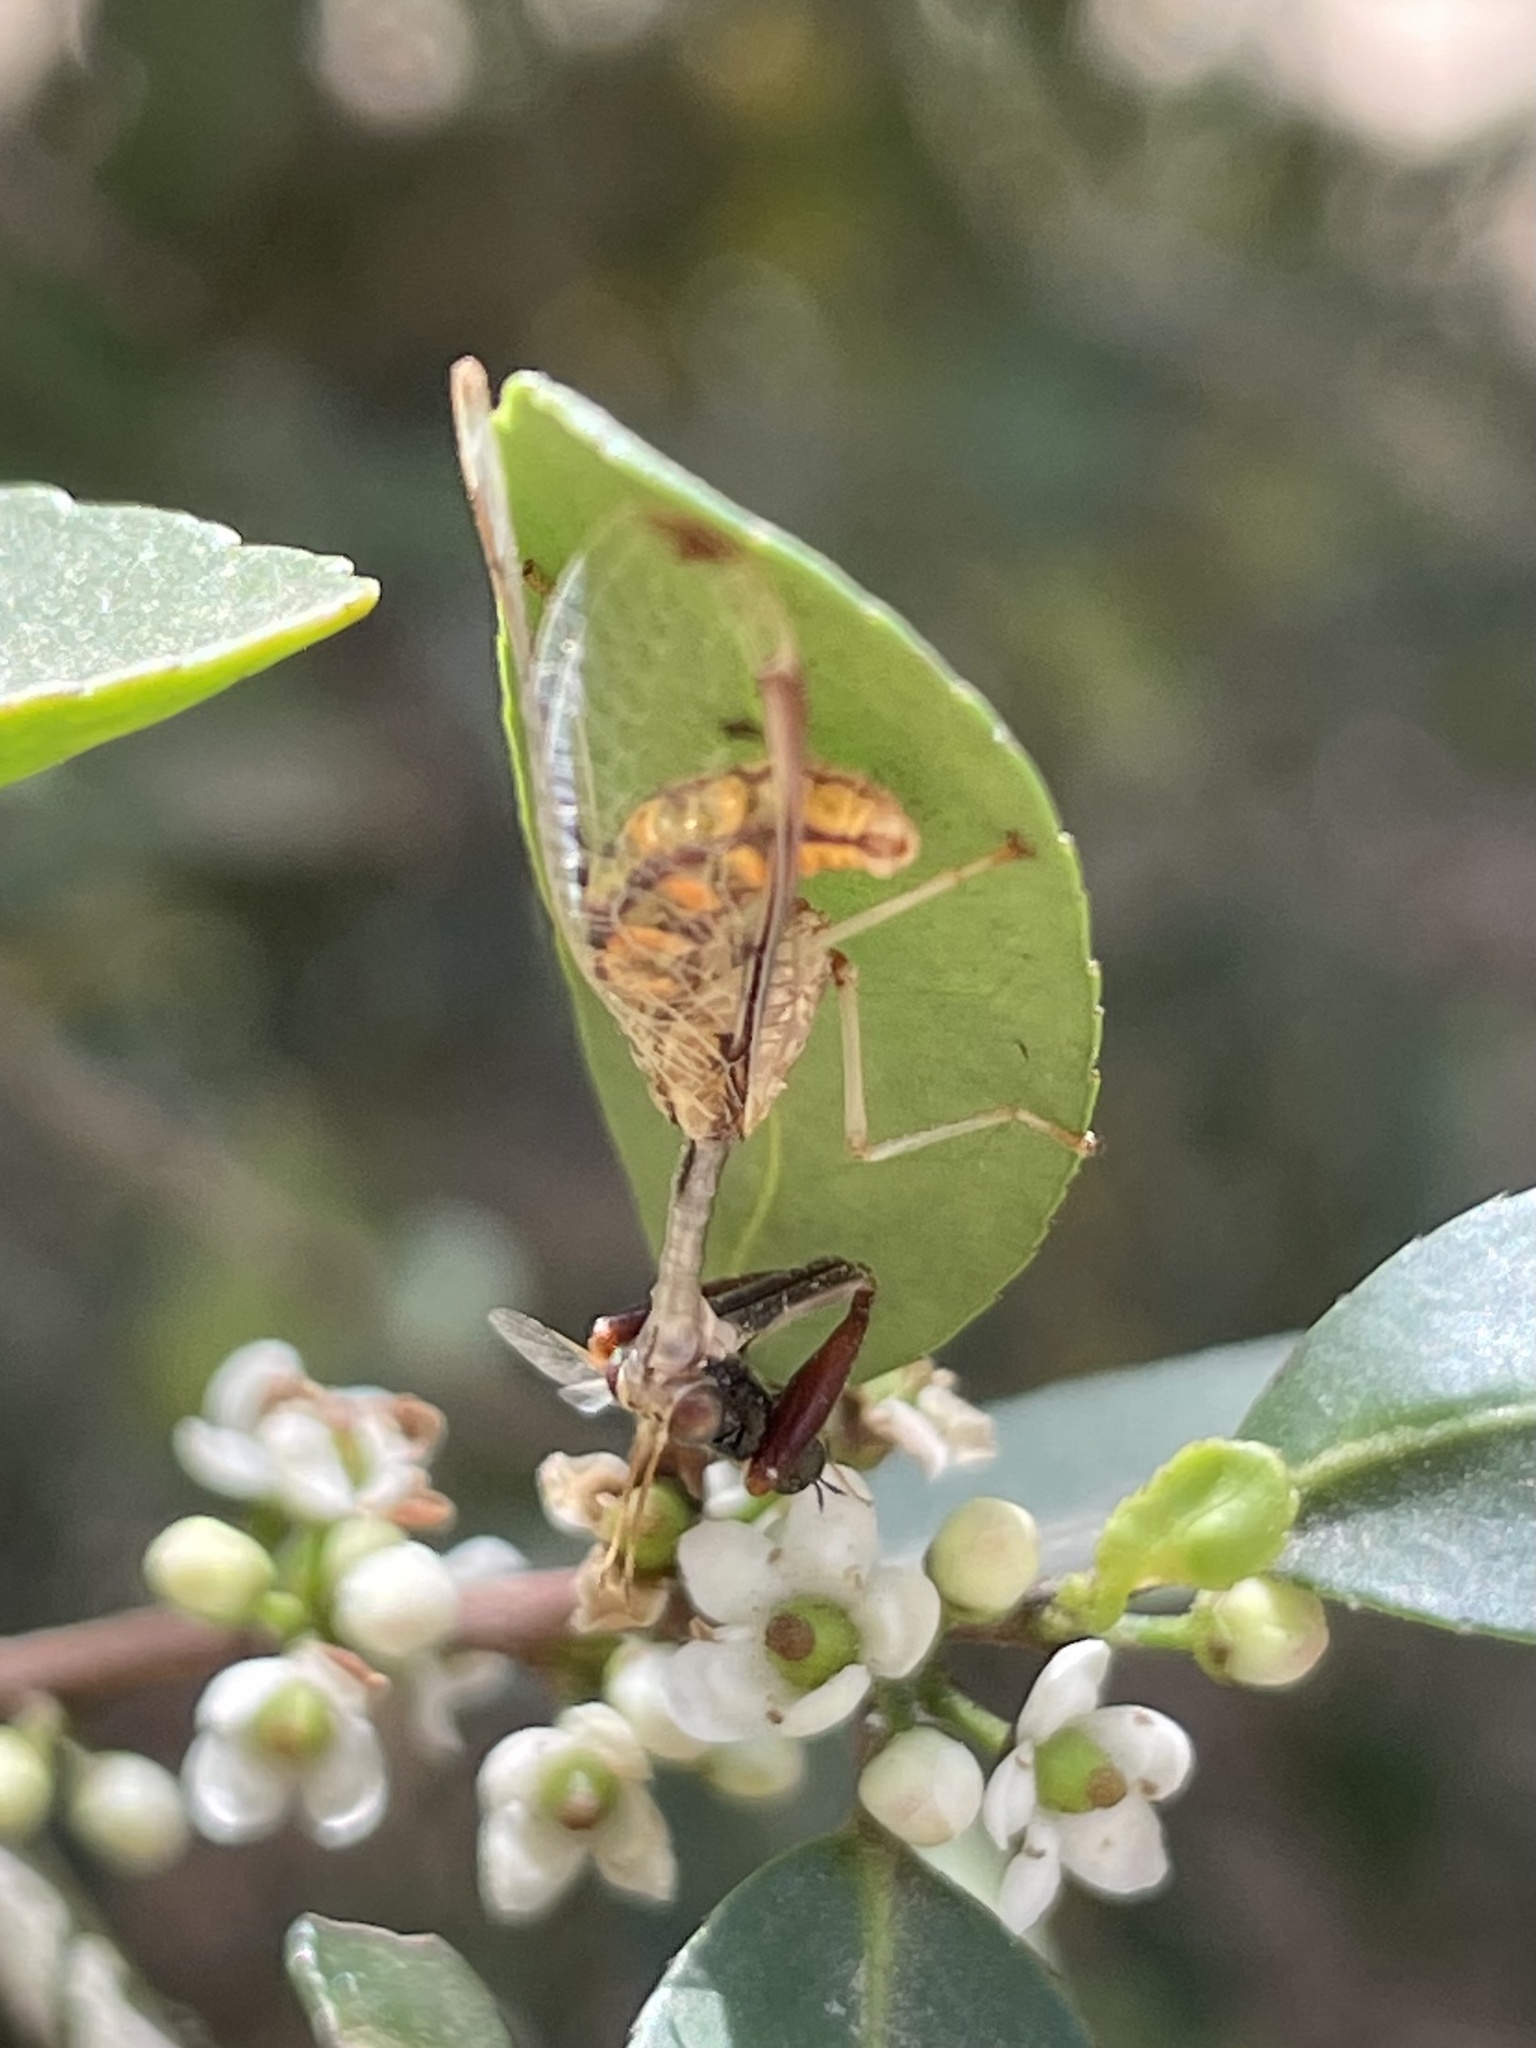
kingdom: Animalia
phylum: Arthropoda
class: Insecta
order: Neuroptera
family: Mantispidae
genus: Dicromantispa
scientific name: Dicromantispa interrupta
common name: Four-spotted mantidfly
